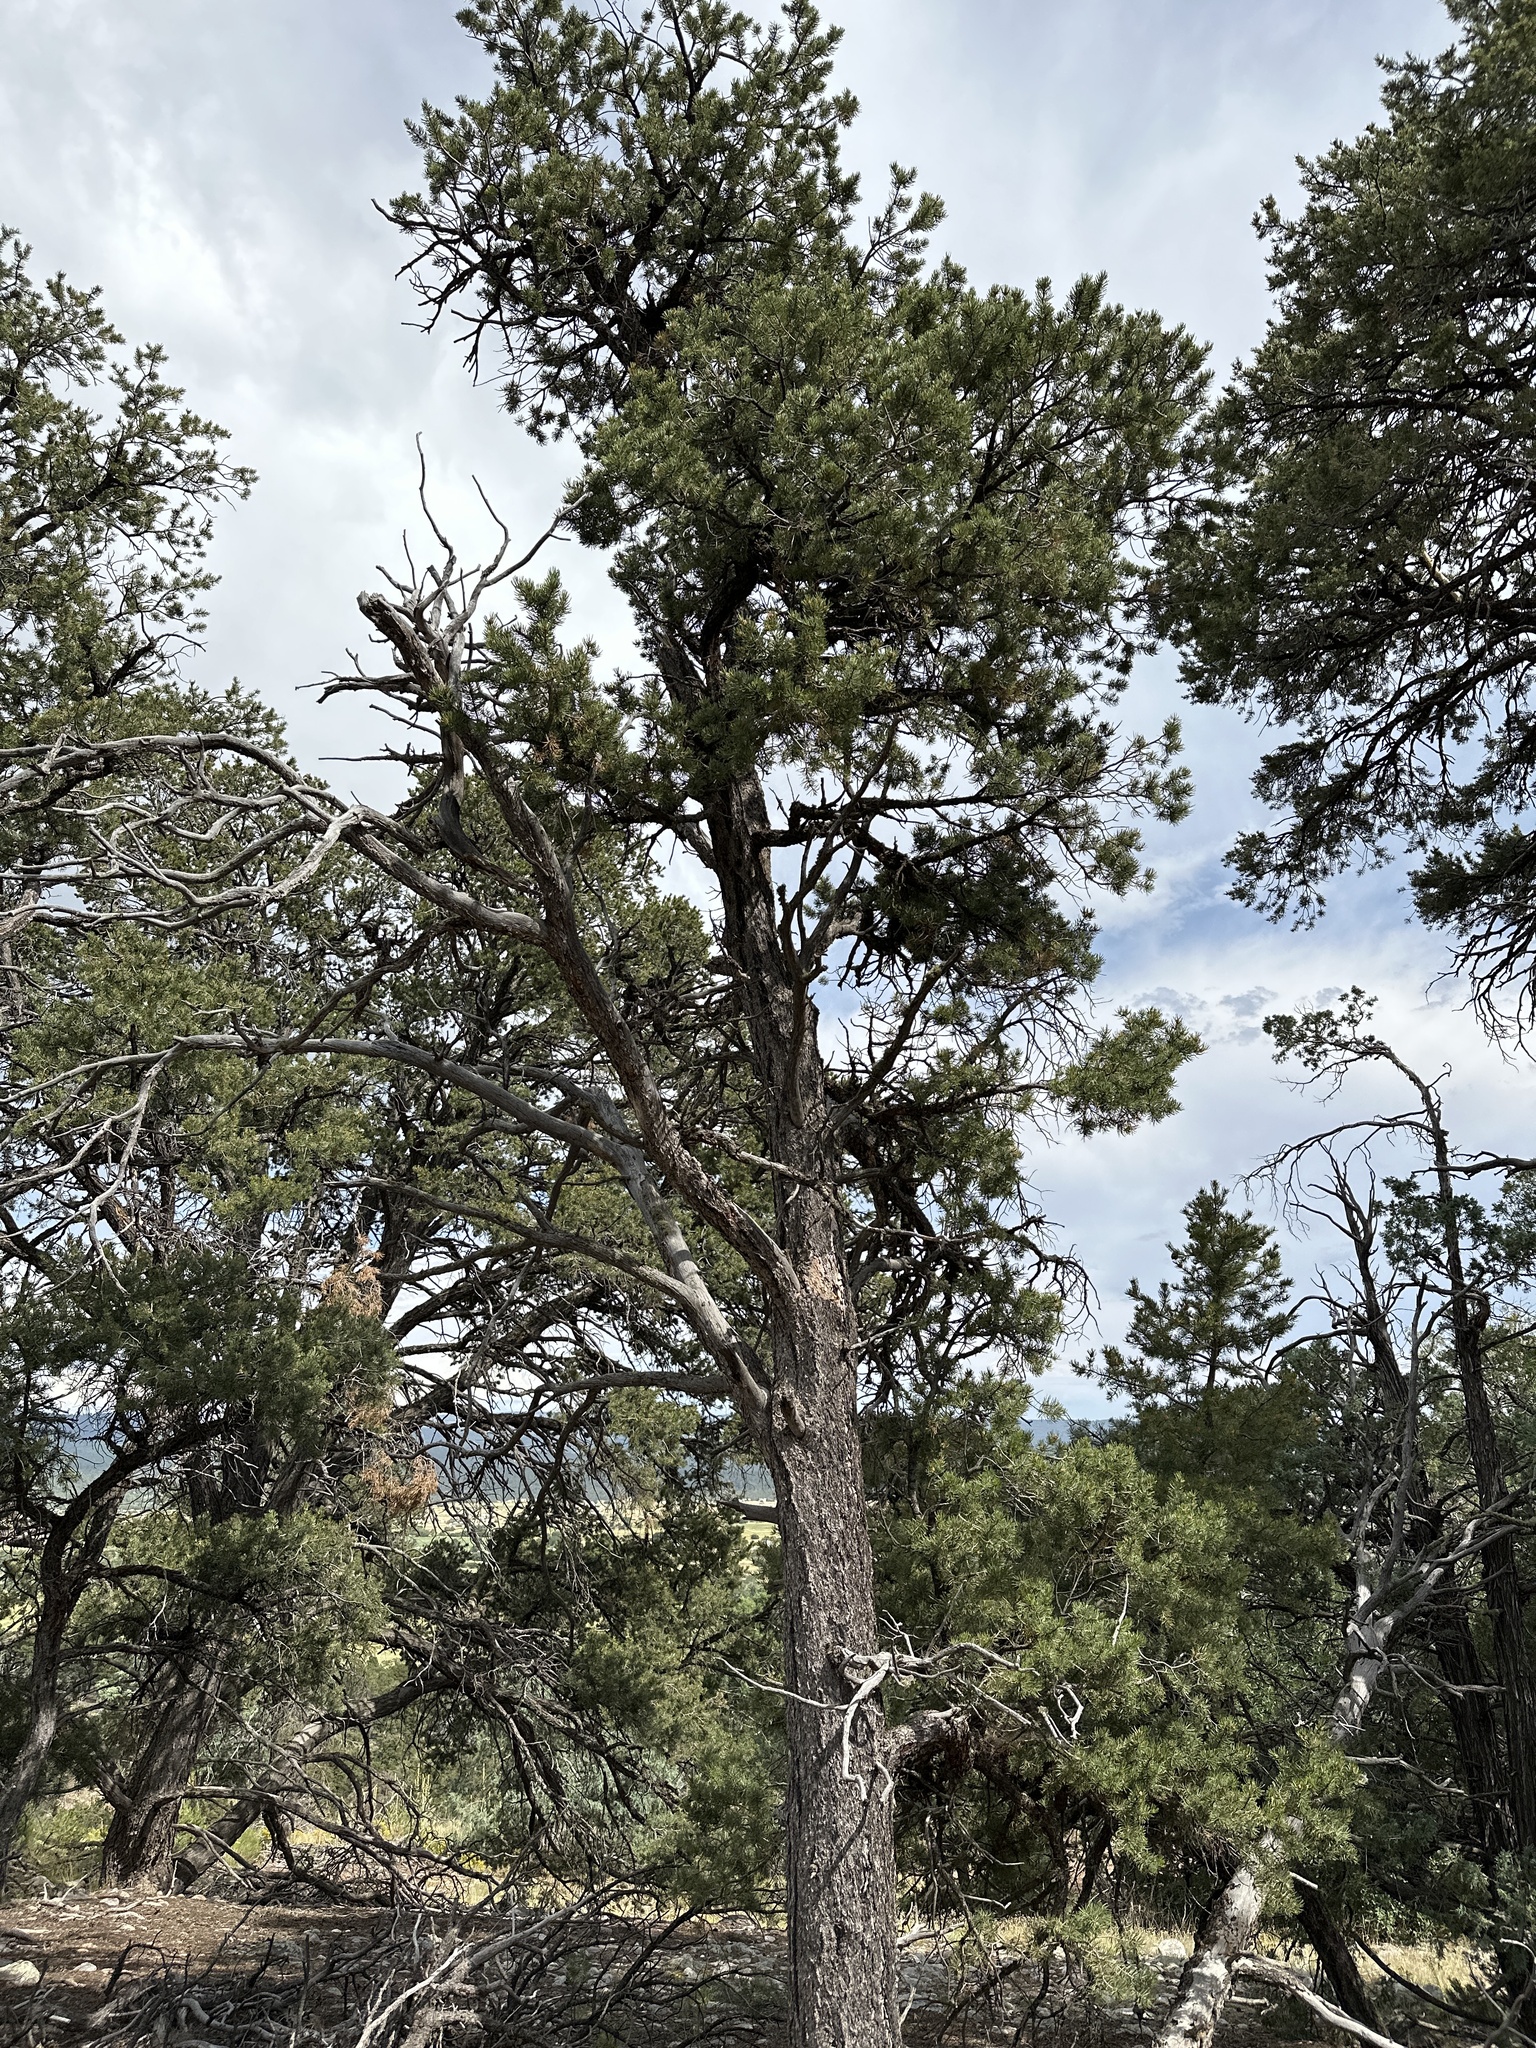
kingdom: Plantae
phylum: Tracheophyta
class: Pinopsida
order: Pinales
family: Pinaceae
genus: Pinus
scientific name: Pinus edulis
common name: Colorado pinyon
